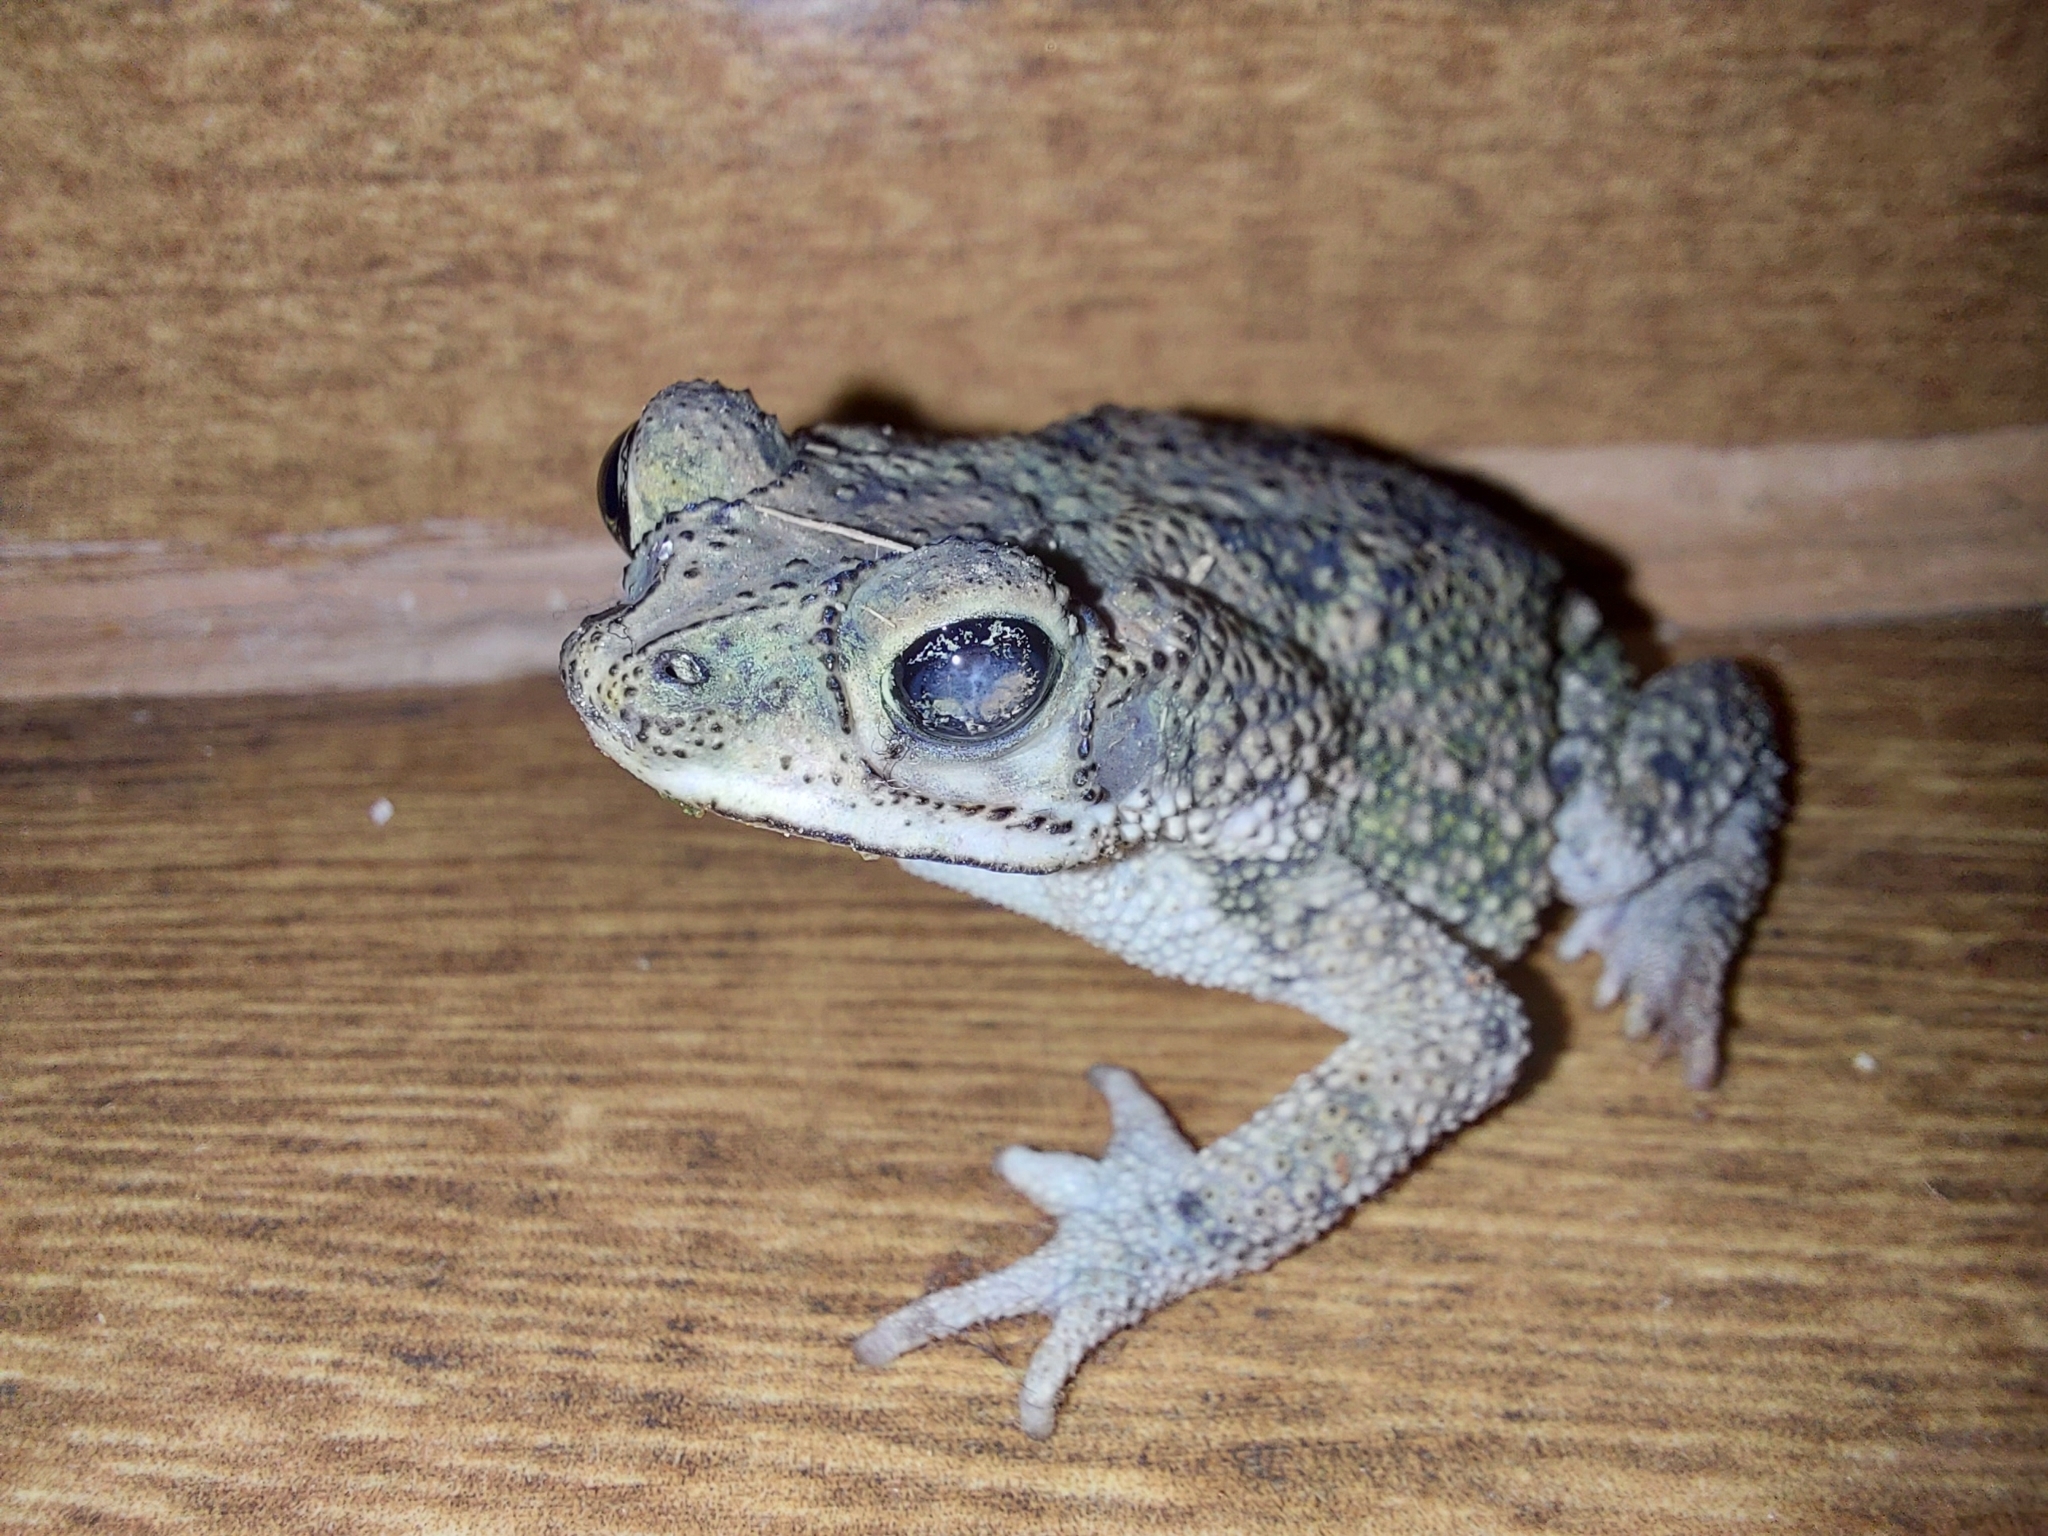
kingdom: Animalia
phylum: Chordata
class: Amphibia
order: Anura
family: Bufonidae
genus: Rhinella
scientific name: Rhinella mirandaribeiroi
